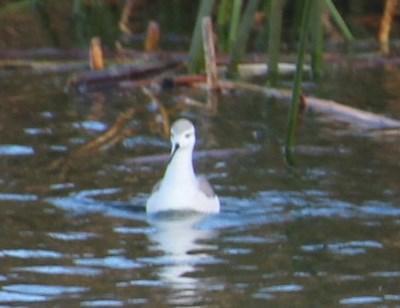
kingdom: Animalia
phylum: Chordata
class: Aves
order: Charadriiformes
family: Scolopacidae
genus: Phalaropus
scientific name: Phalaropus tricolor
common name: Wilson's phalarope
